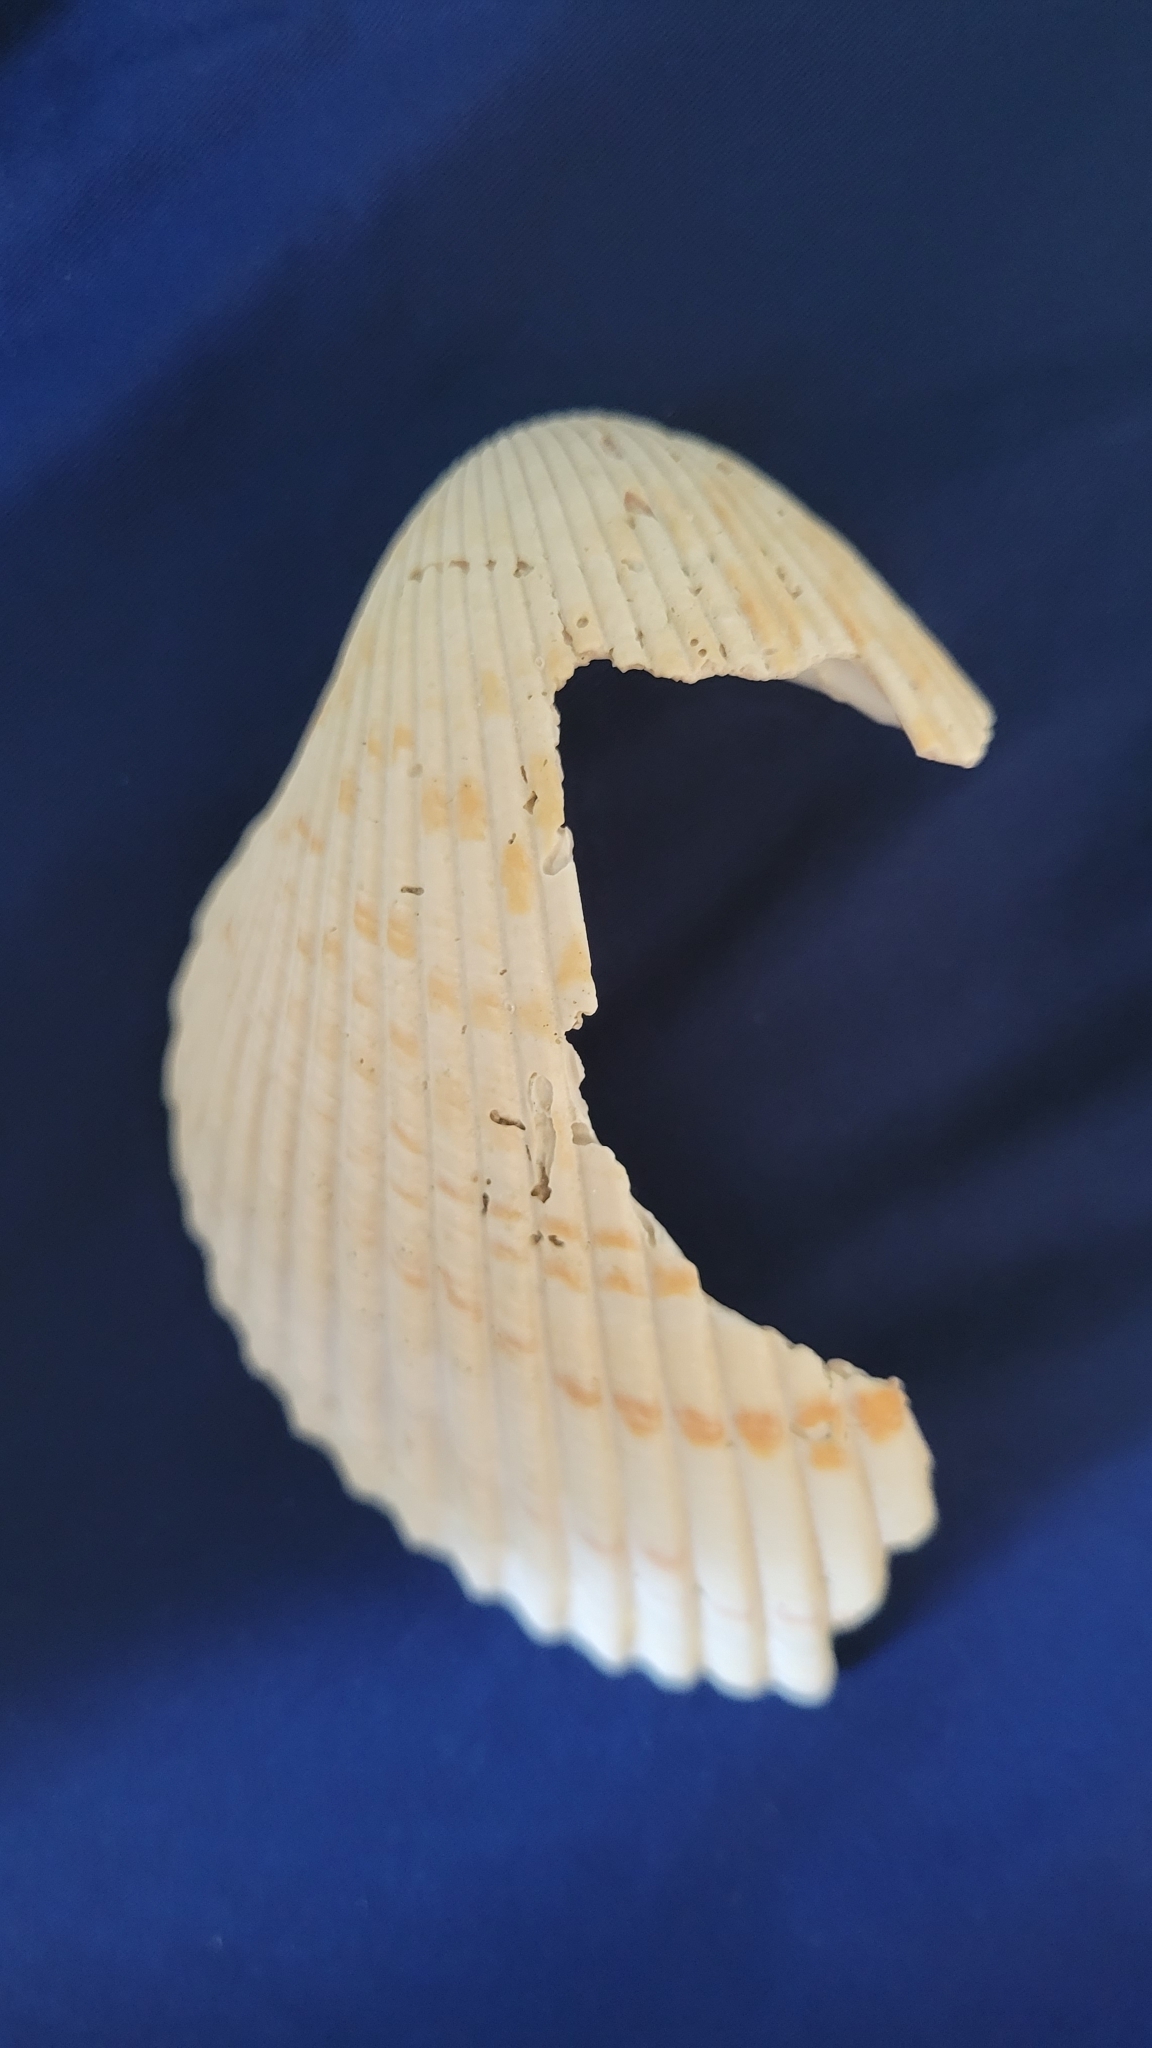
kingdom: Animalia
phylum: Mollusca
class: Bivalvia
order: Cardiida
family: Cardiidae
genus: Dinocardium
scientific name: Dinocardium robustum
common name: Atlantic giant cockle
